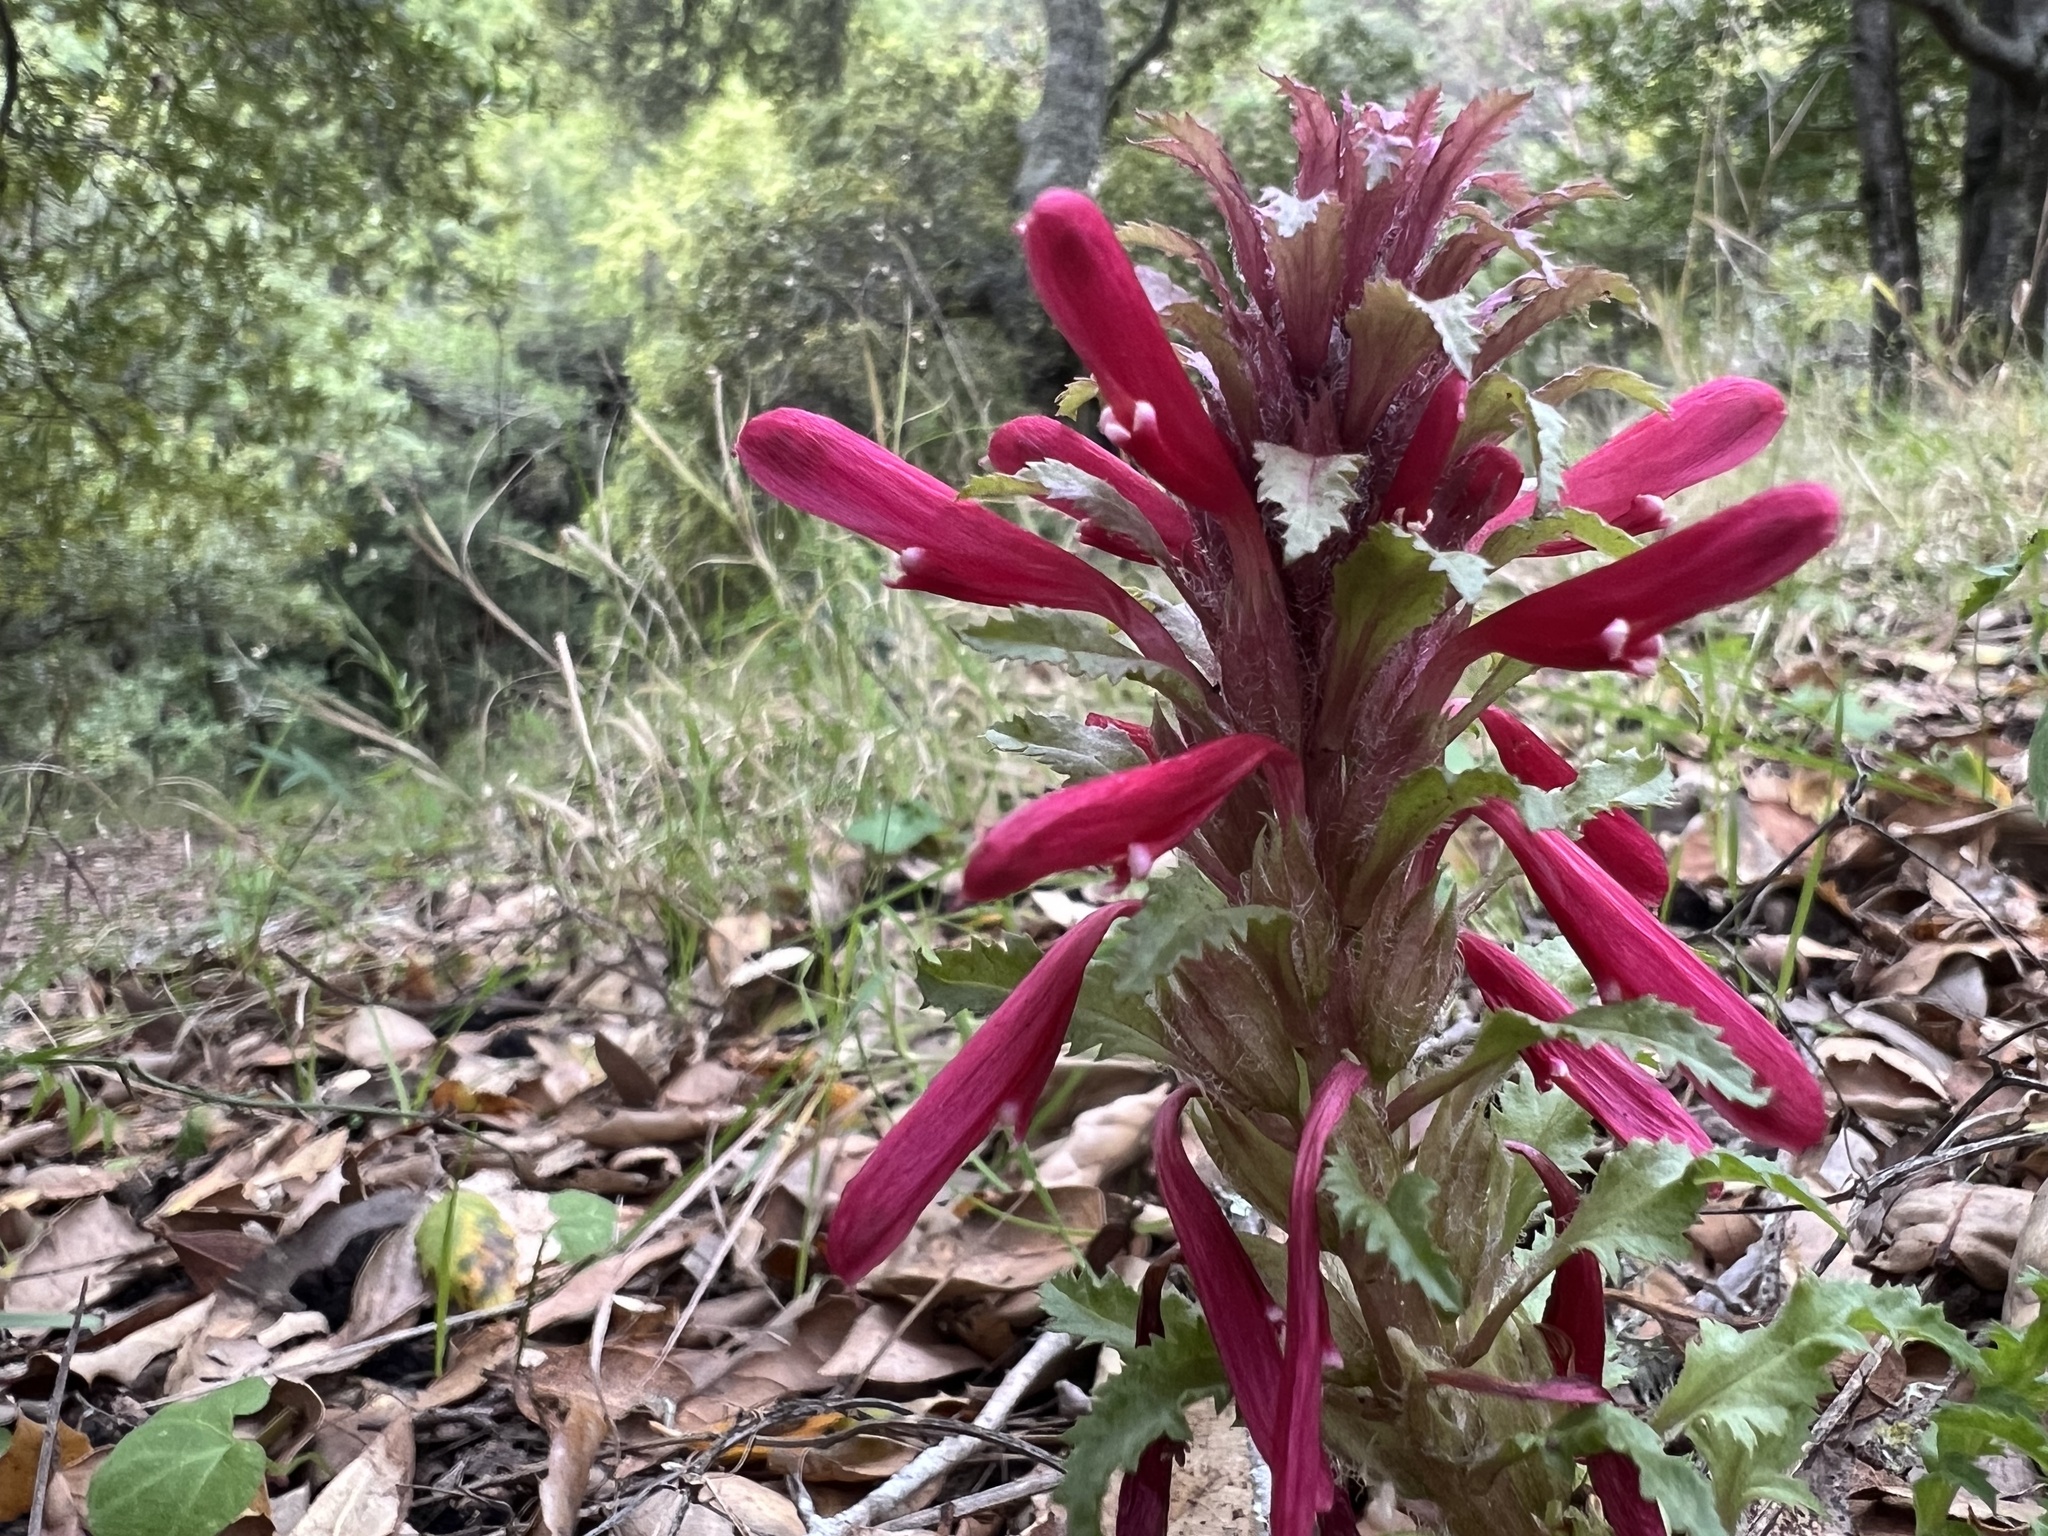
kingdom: Plantae
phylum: Tracheophyta
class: Magnoliopsida
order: Lamiales
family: Orobanchaceae
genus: Pedicularis
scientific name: Pedicularis densiflora
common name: Indian warrior
